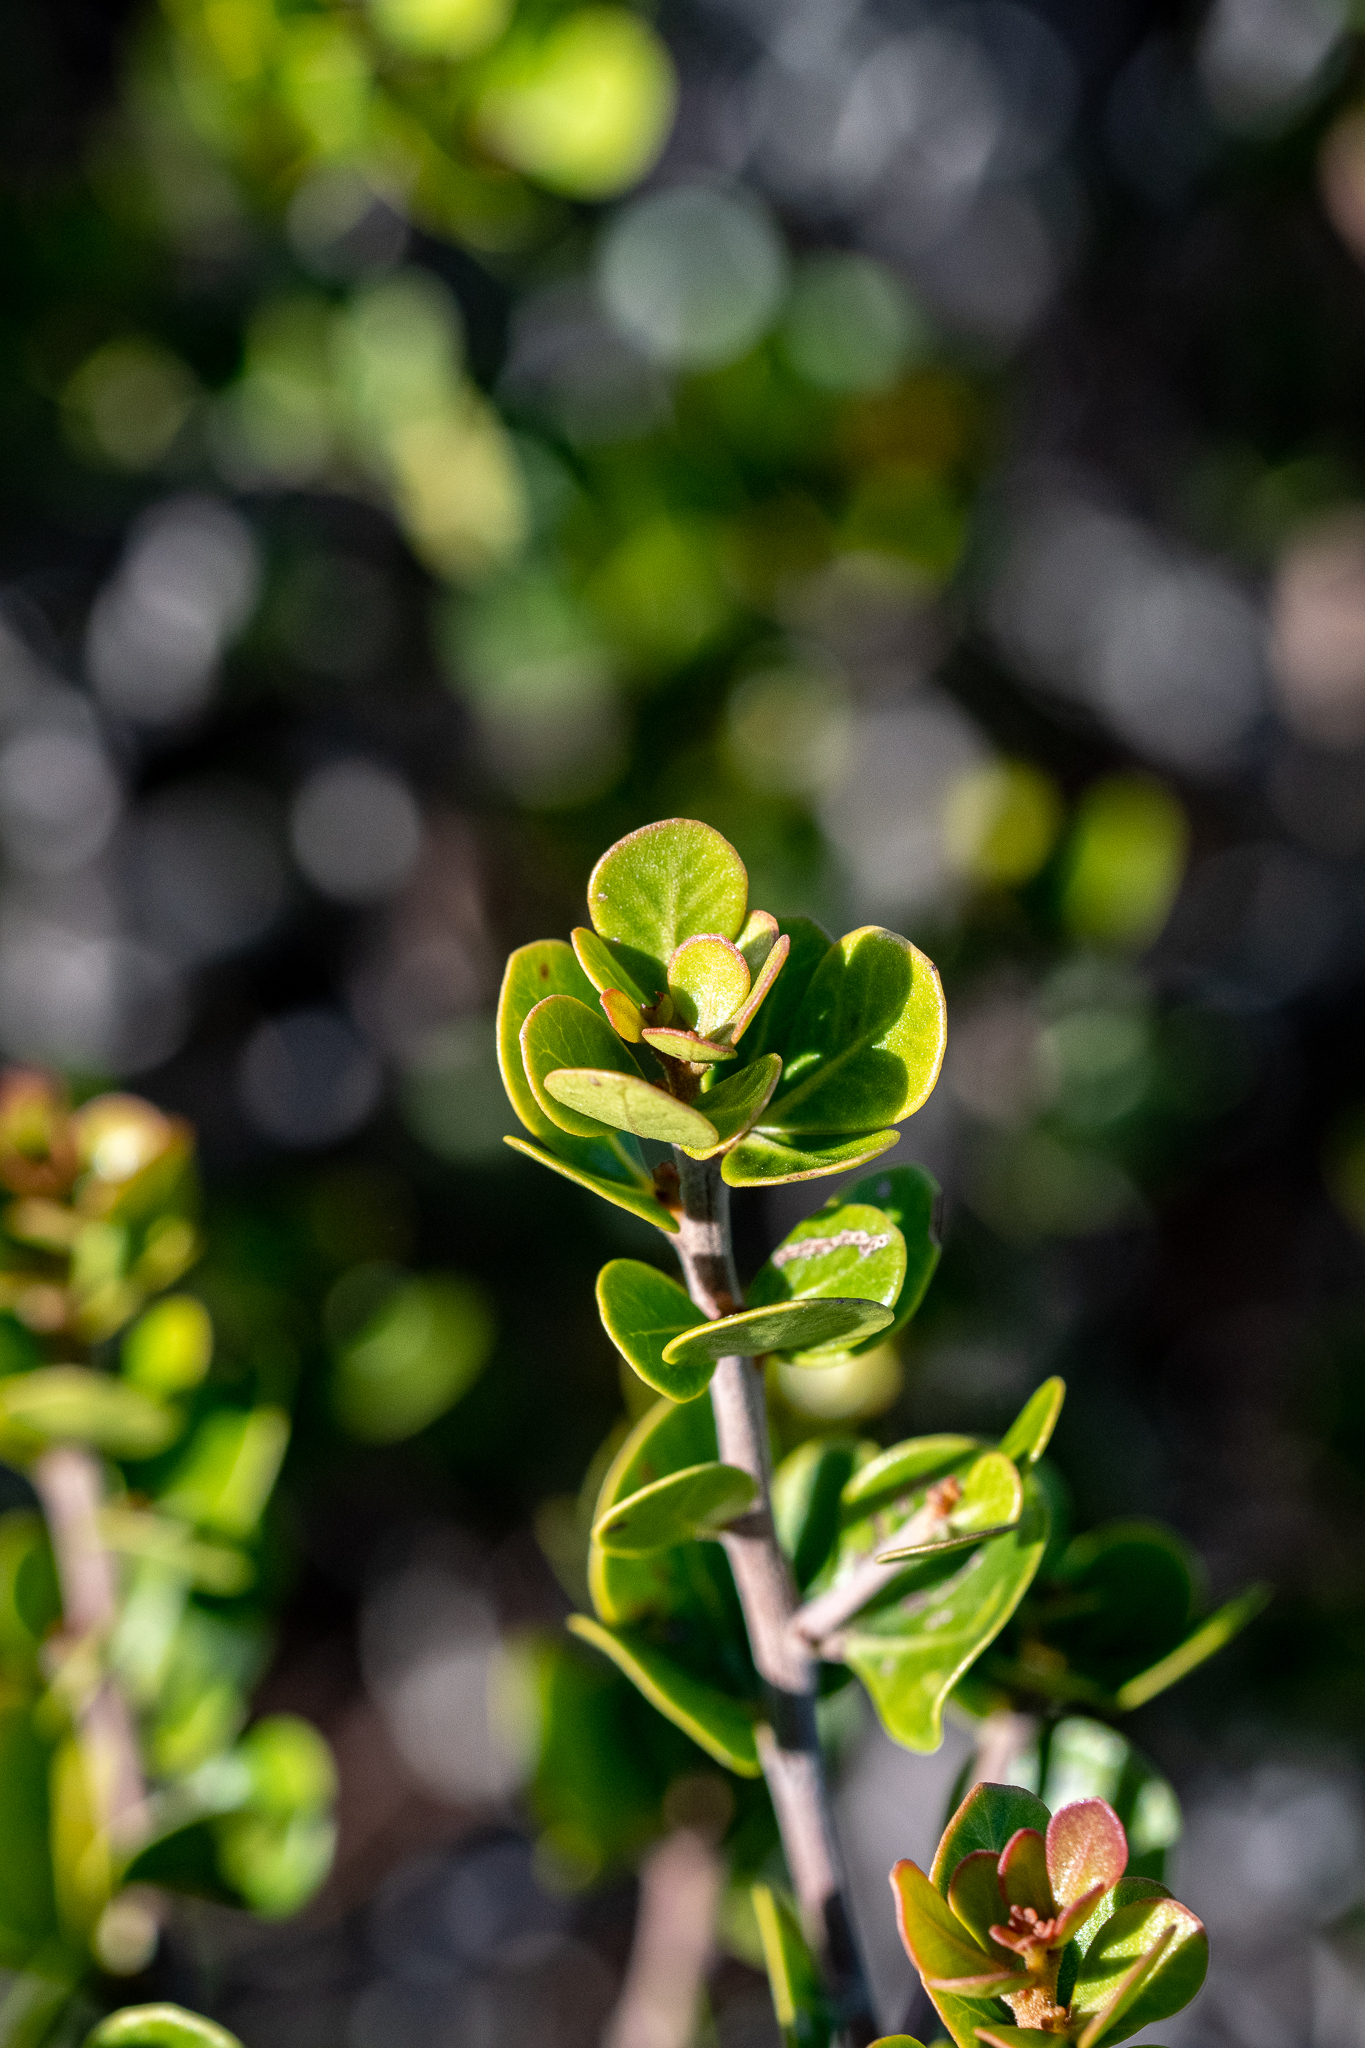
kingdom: Plantae
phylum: Tracheophyta
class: Magnoliopsida
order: Sapindales
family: Anacardiaceae
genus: Searsia
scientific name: Searsia lucida
